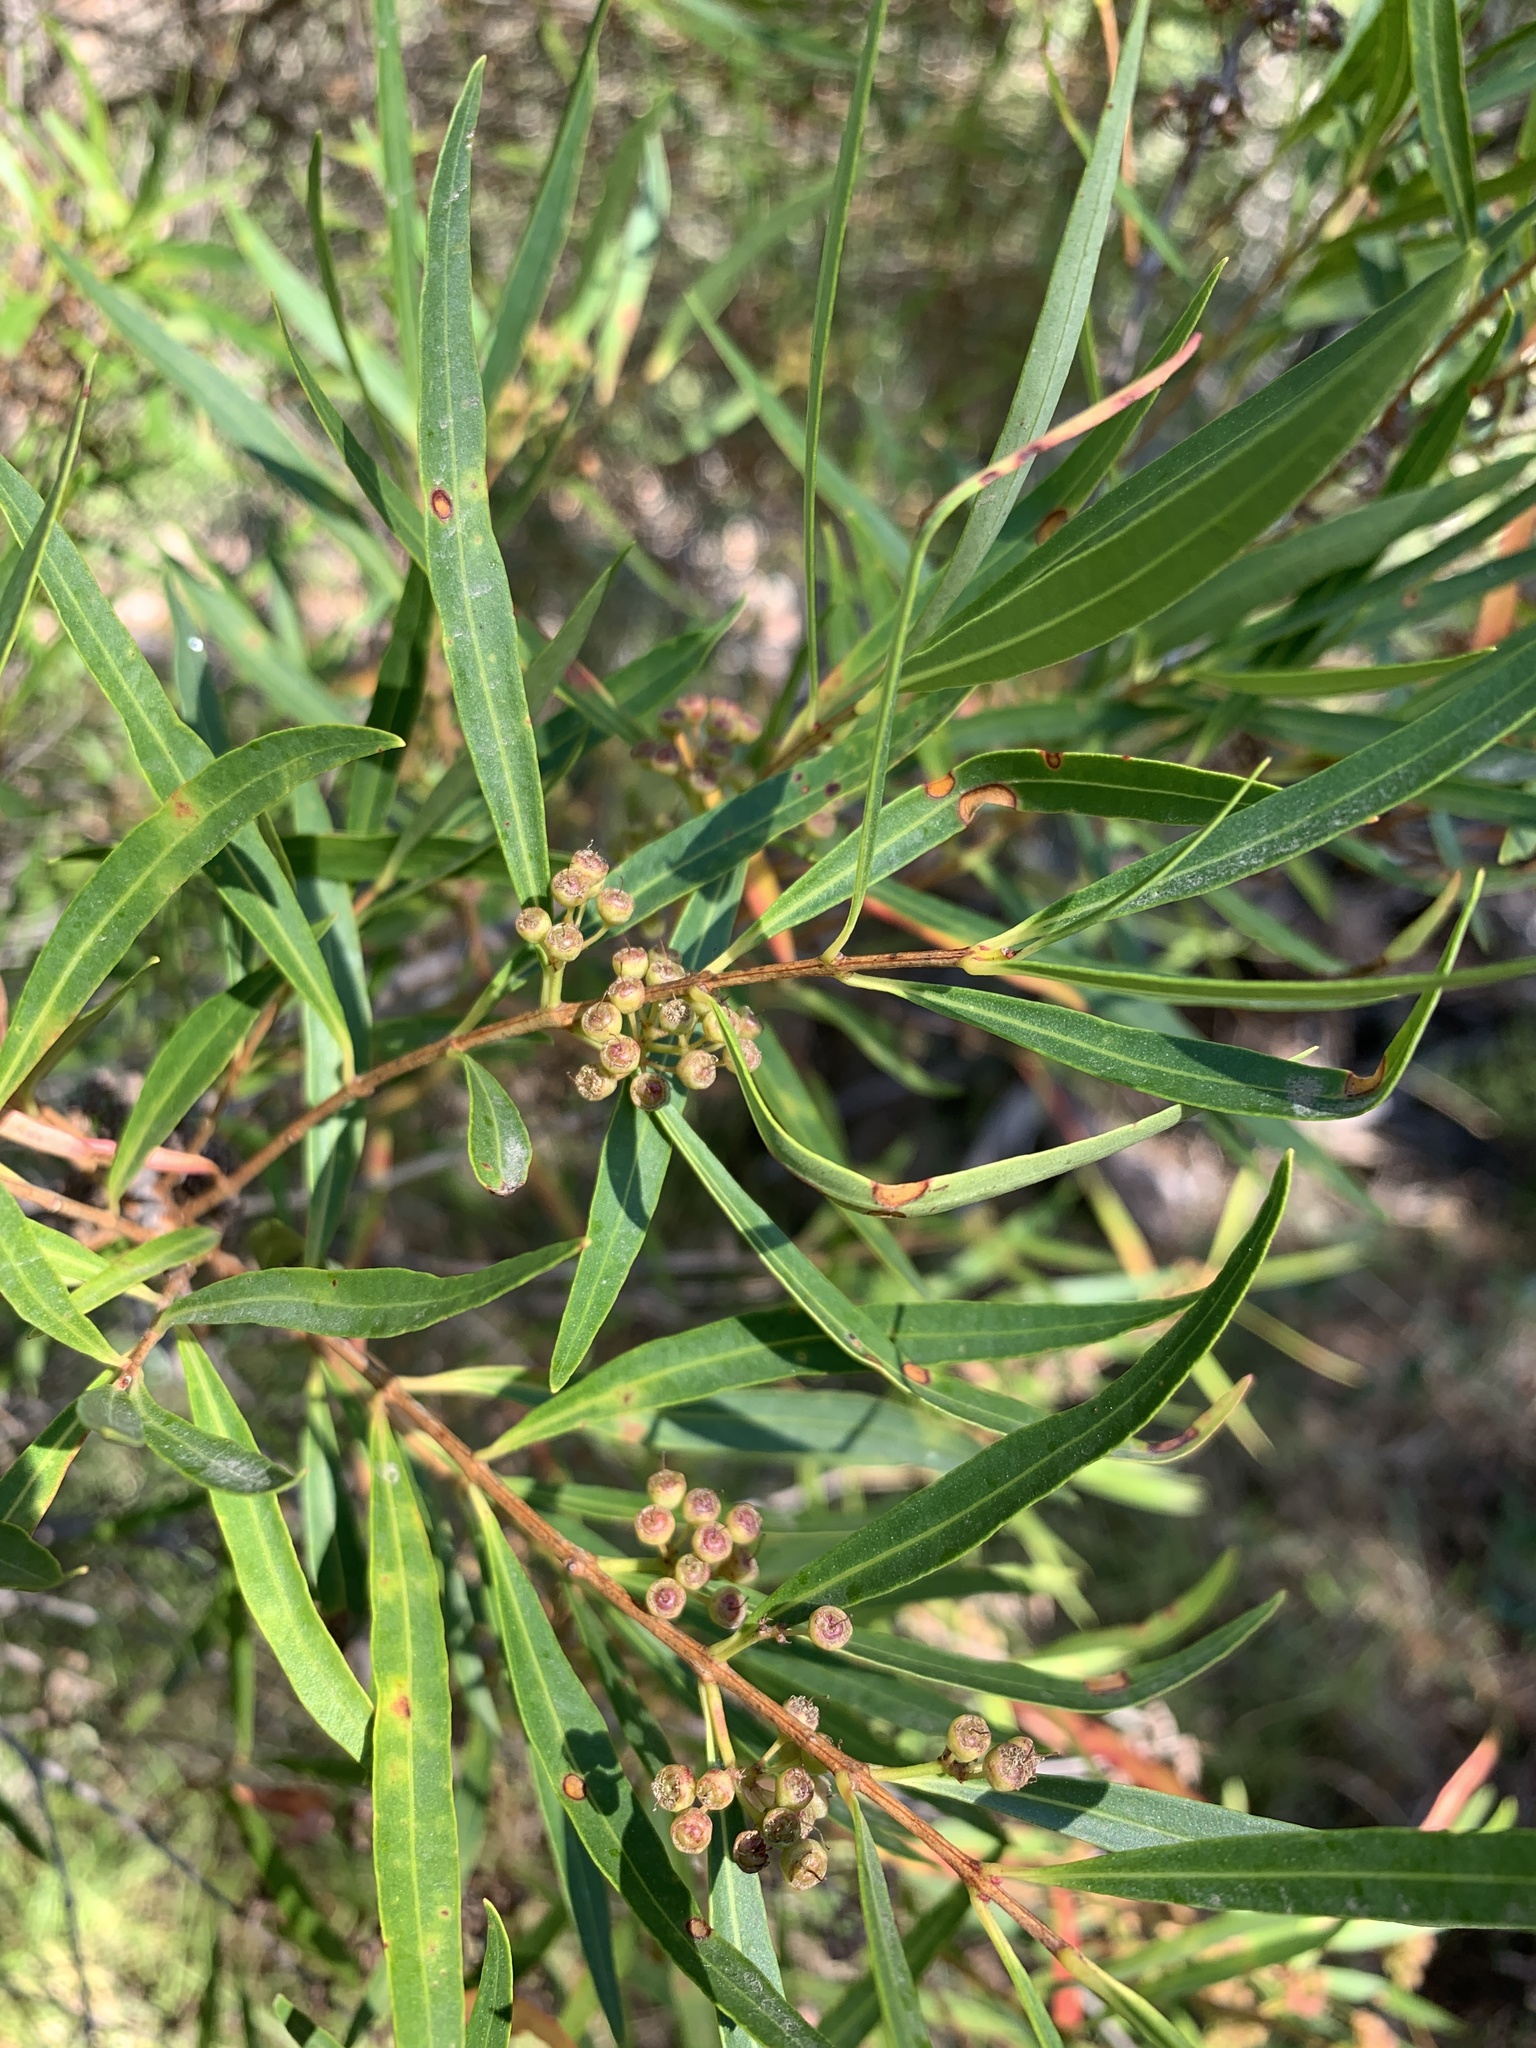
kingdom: Plantae
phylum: Tracheophyta
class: Magnoliopsida
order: Myrtales
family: Myrtaceae
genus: Callistemon
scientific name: Callistemon lanceolatus
